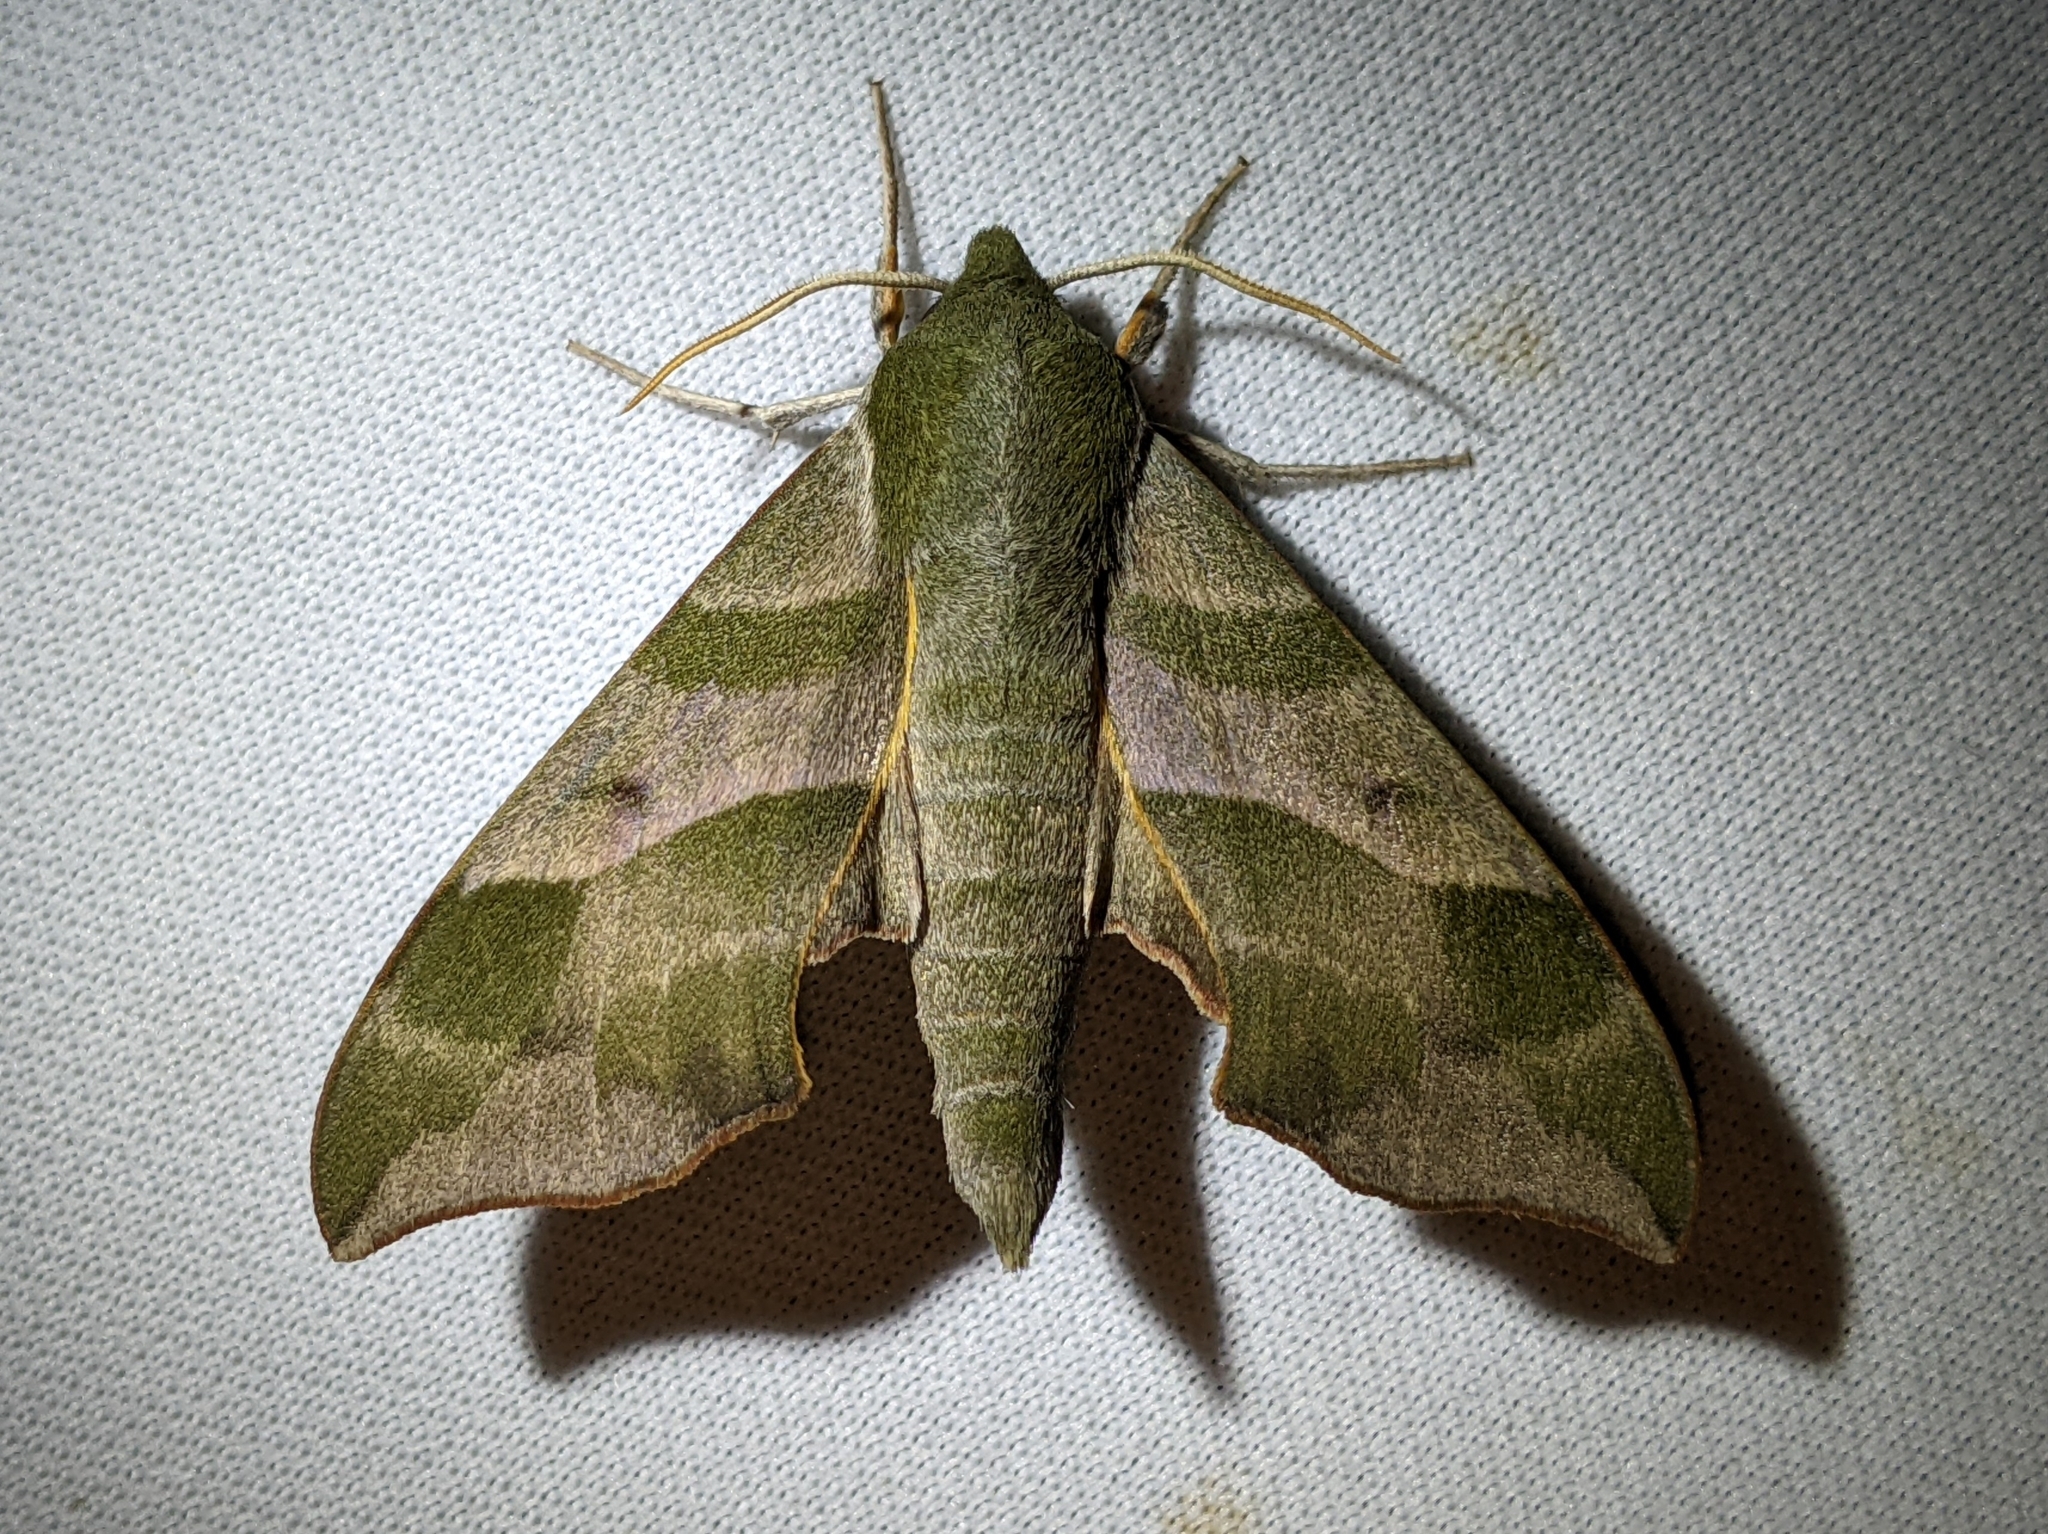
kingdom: Animalia
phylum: Arthropoda
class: Insecta
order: Lepidoptera
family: Sphingidae
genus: Darapsa
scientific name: Darapsa myron
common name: Hog sphinx
